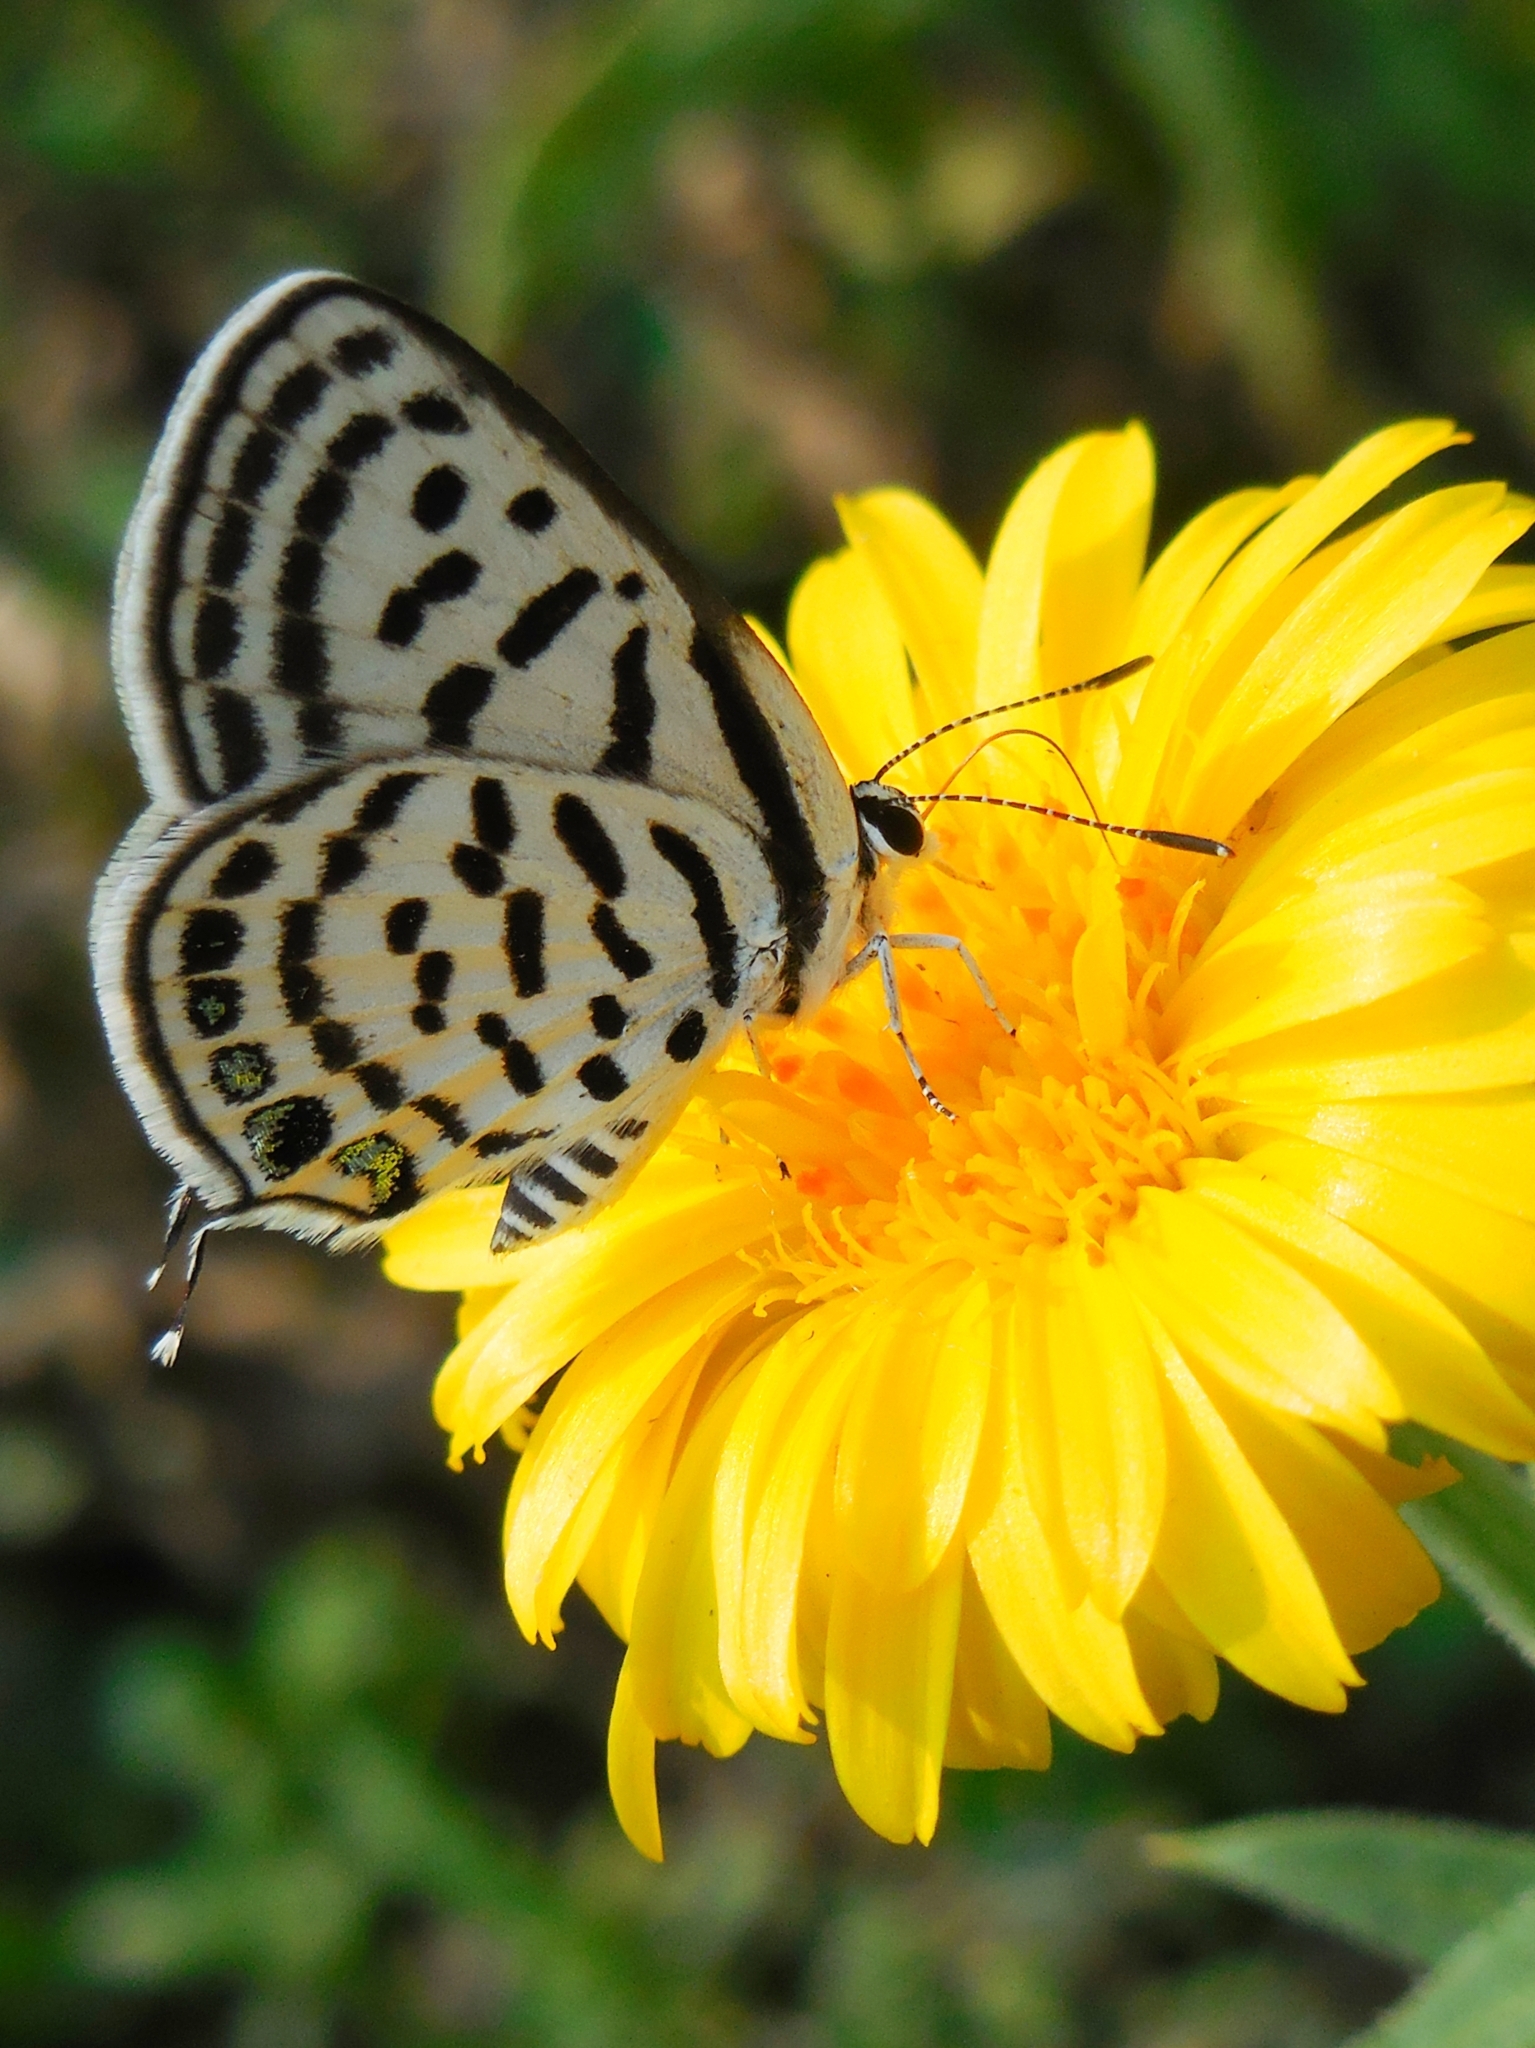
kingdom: Animalia
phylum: Arthropoda
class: Insecta
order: Lepidoptera
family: Lycaenidae
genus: Tarucus
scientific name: Tarucus venosus
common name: Veined pierrot
